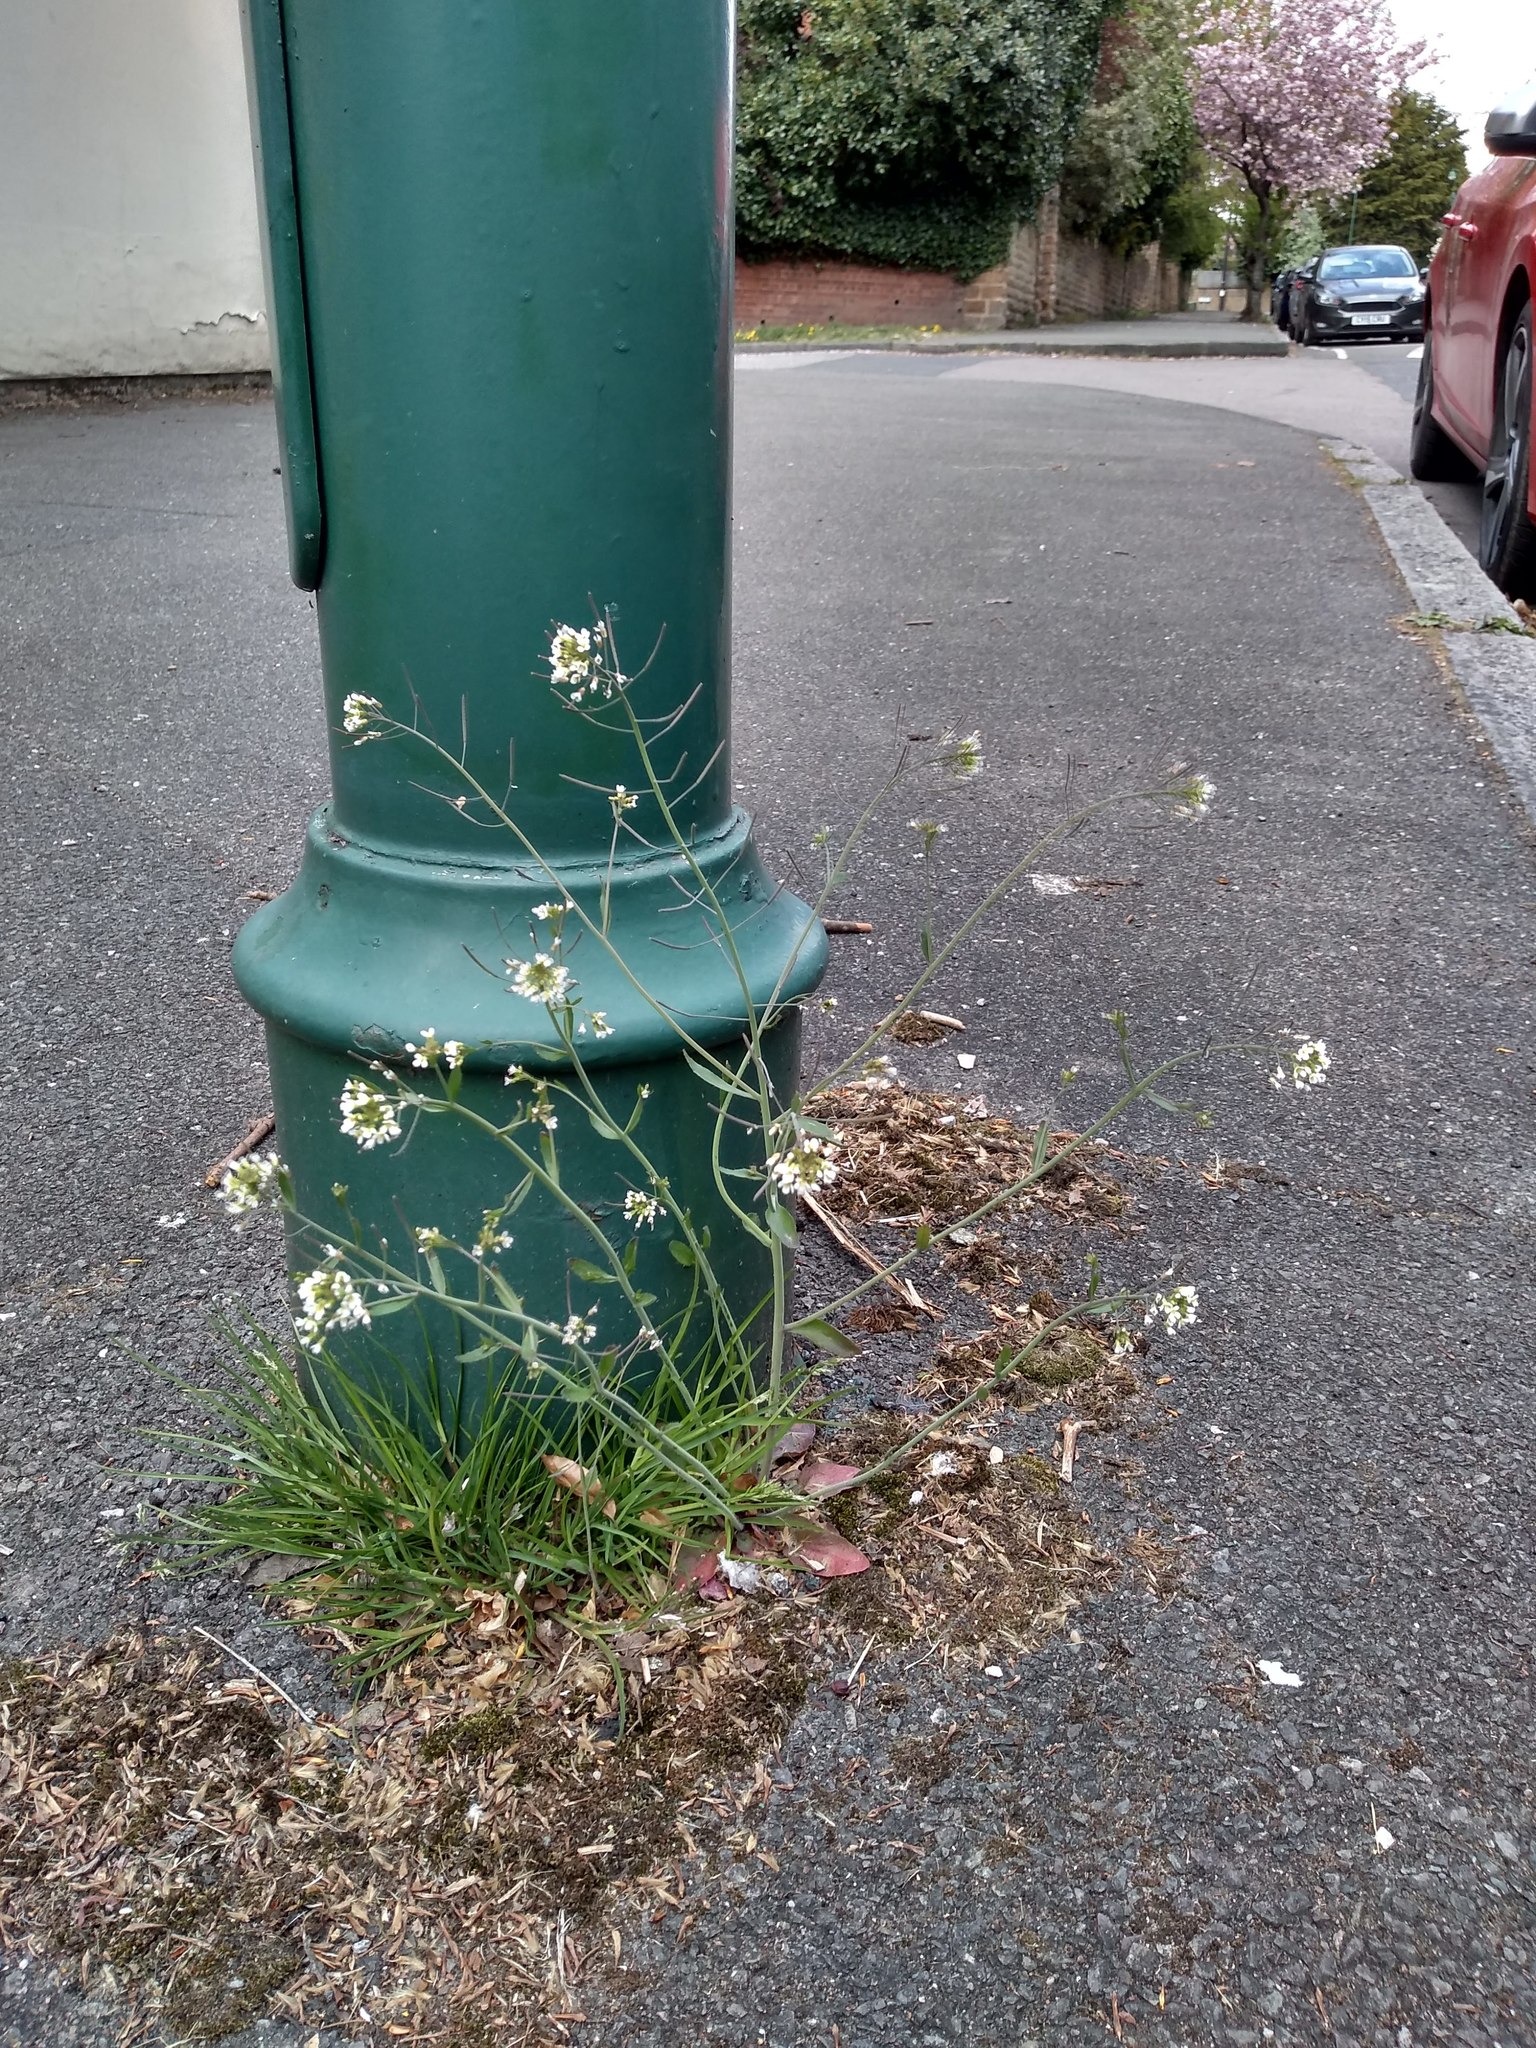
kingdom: Plantae
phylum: Tracheophyta
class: Magnoliopsida
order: Brassicales
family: Brassicaceae
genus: Arabidopsis
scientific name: Arabidopsis thaliana
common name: Thale cress
